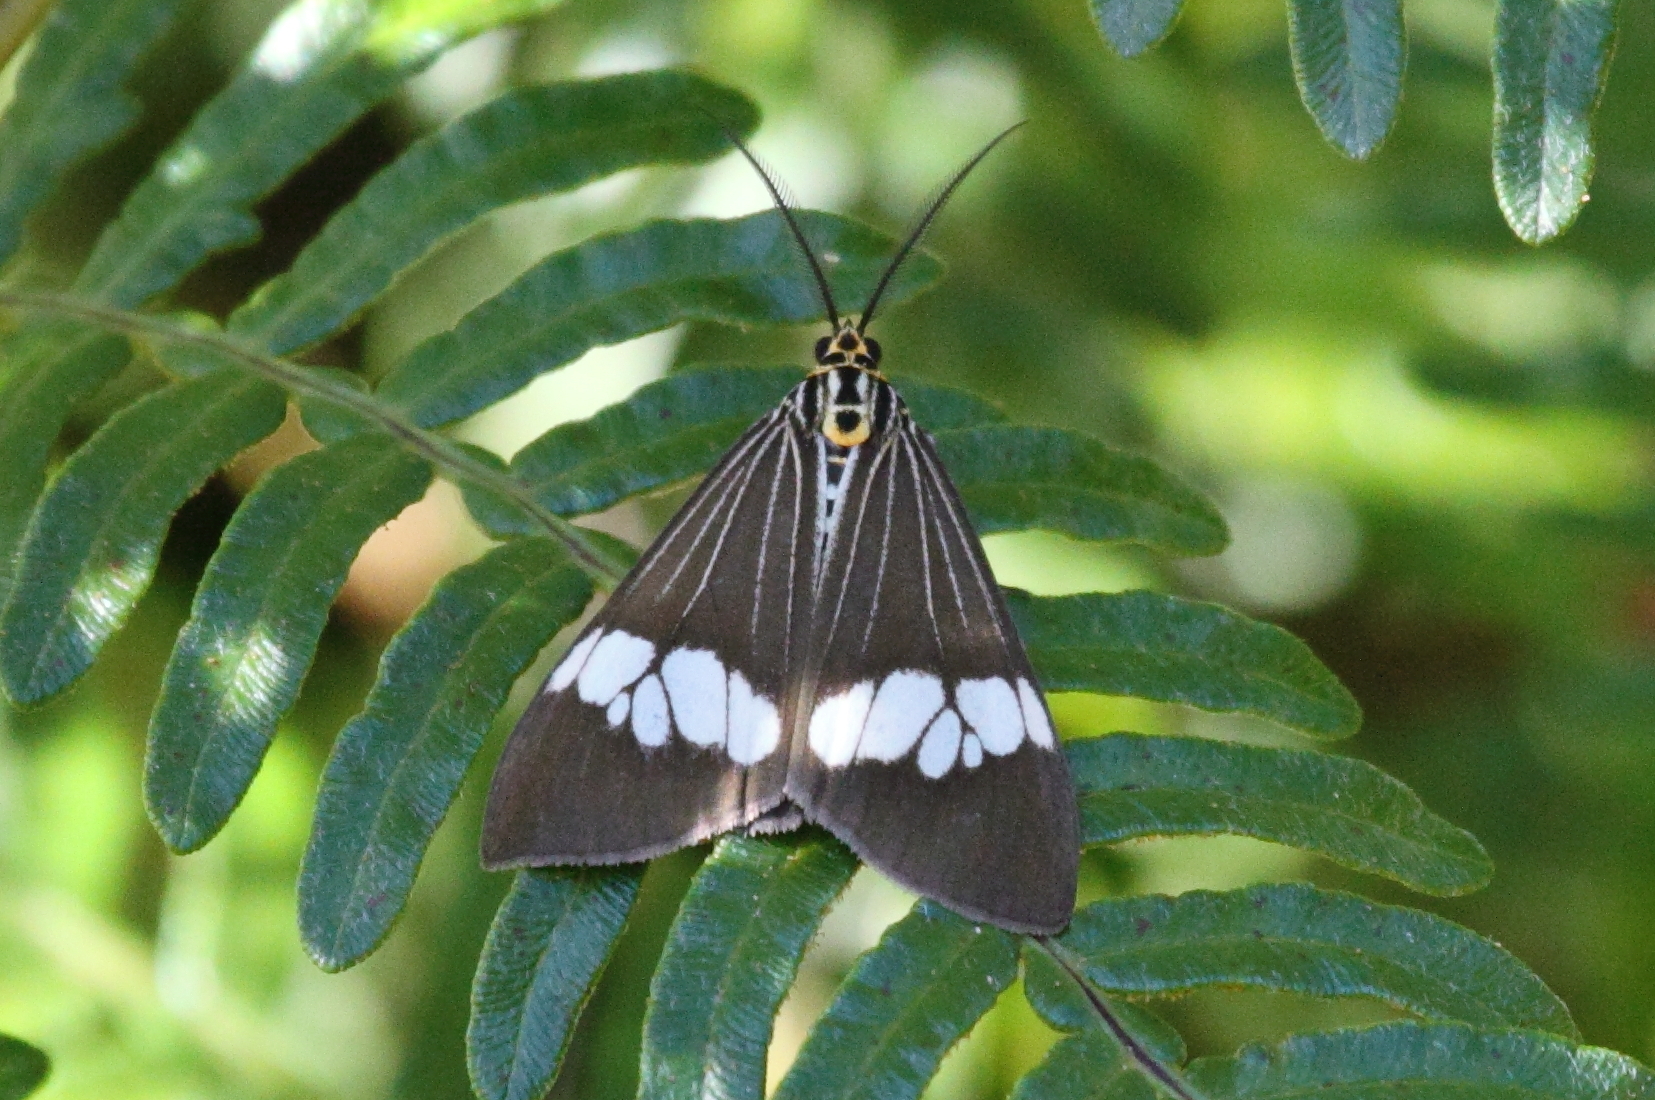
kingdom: Animalia
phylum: Arthropoda
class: Insecta
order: Lepidoptera
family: Erebidae
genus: Nyctemera
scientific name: Nyctemera baulus
